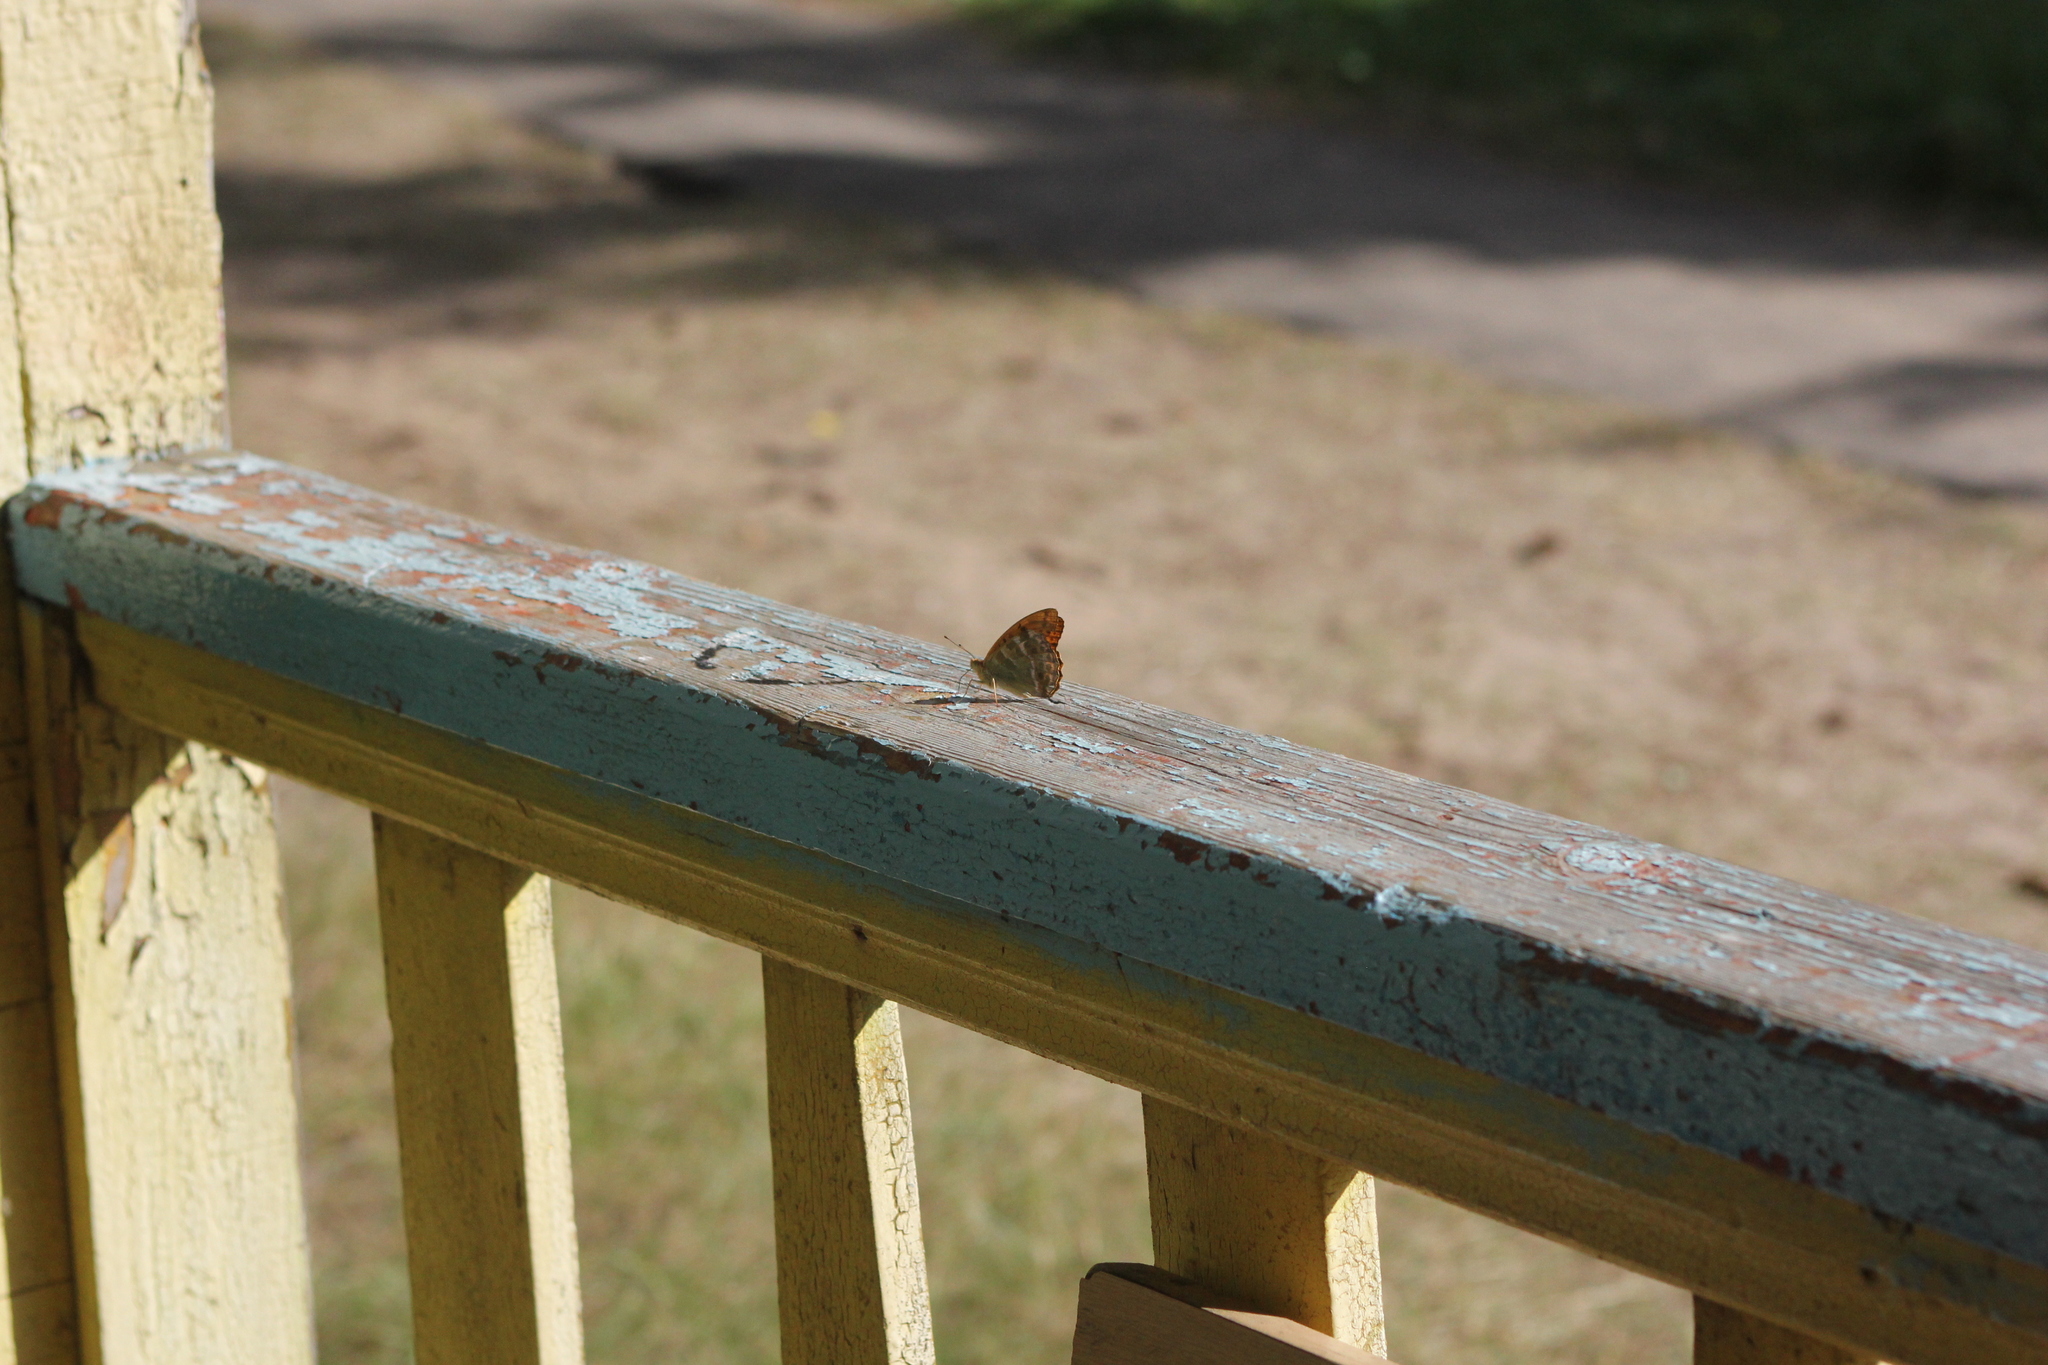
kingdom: Animalia
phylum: Arthropoda
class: Insecta
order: Lepidoptera
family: Nymphalidae
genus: Argynnis
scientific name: Argynnis paphia
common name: Silver-washed fritillary
